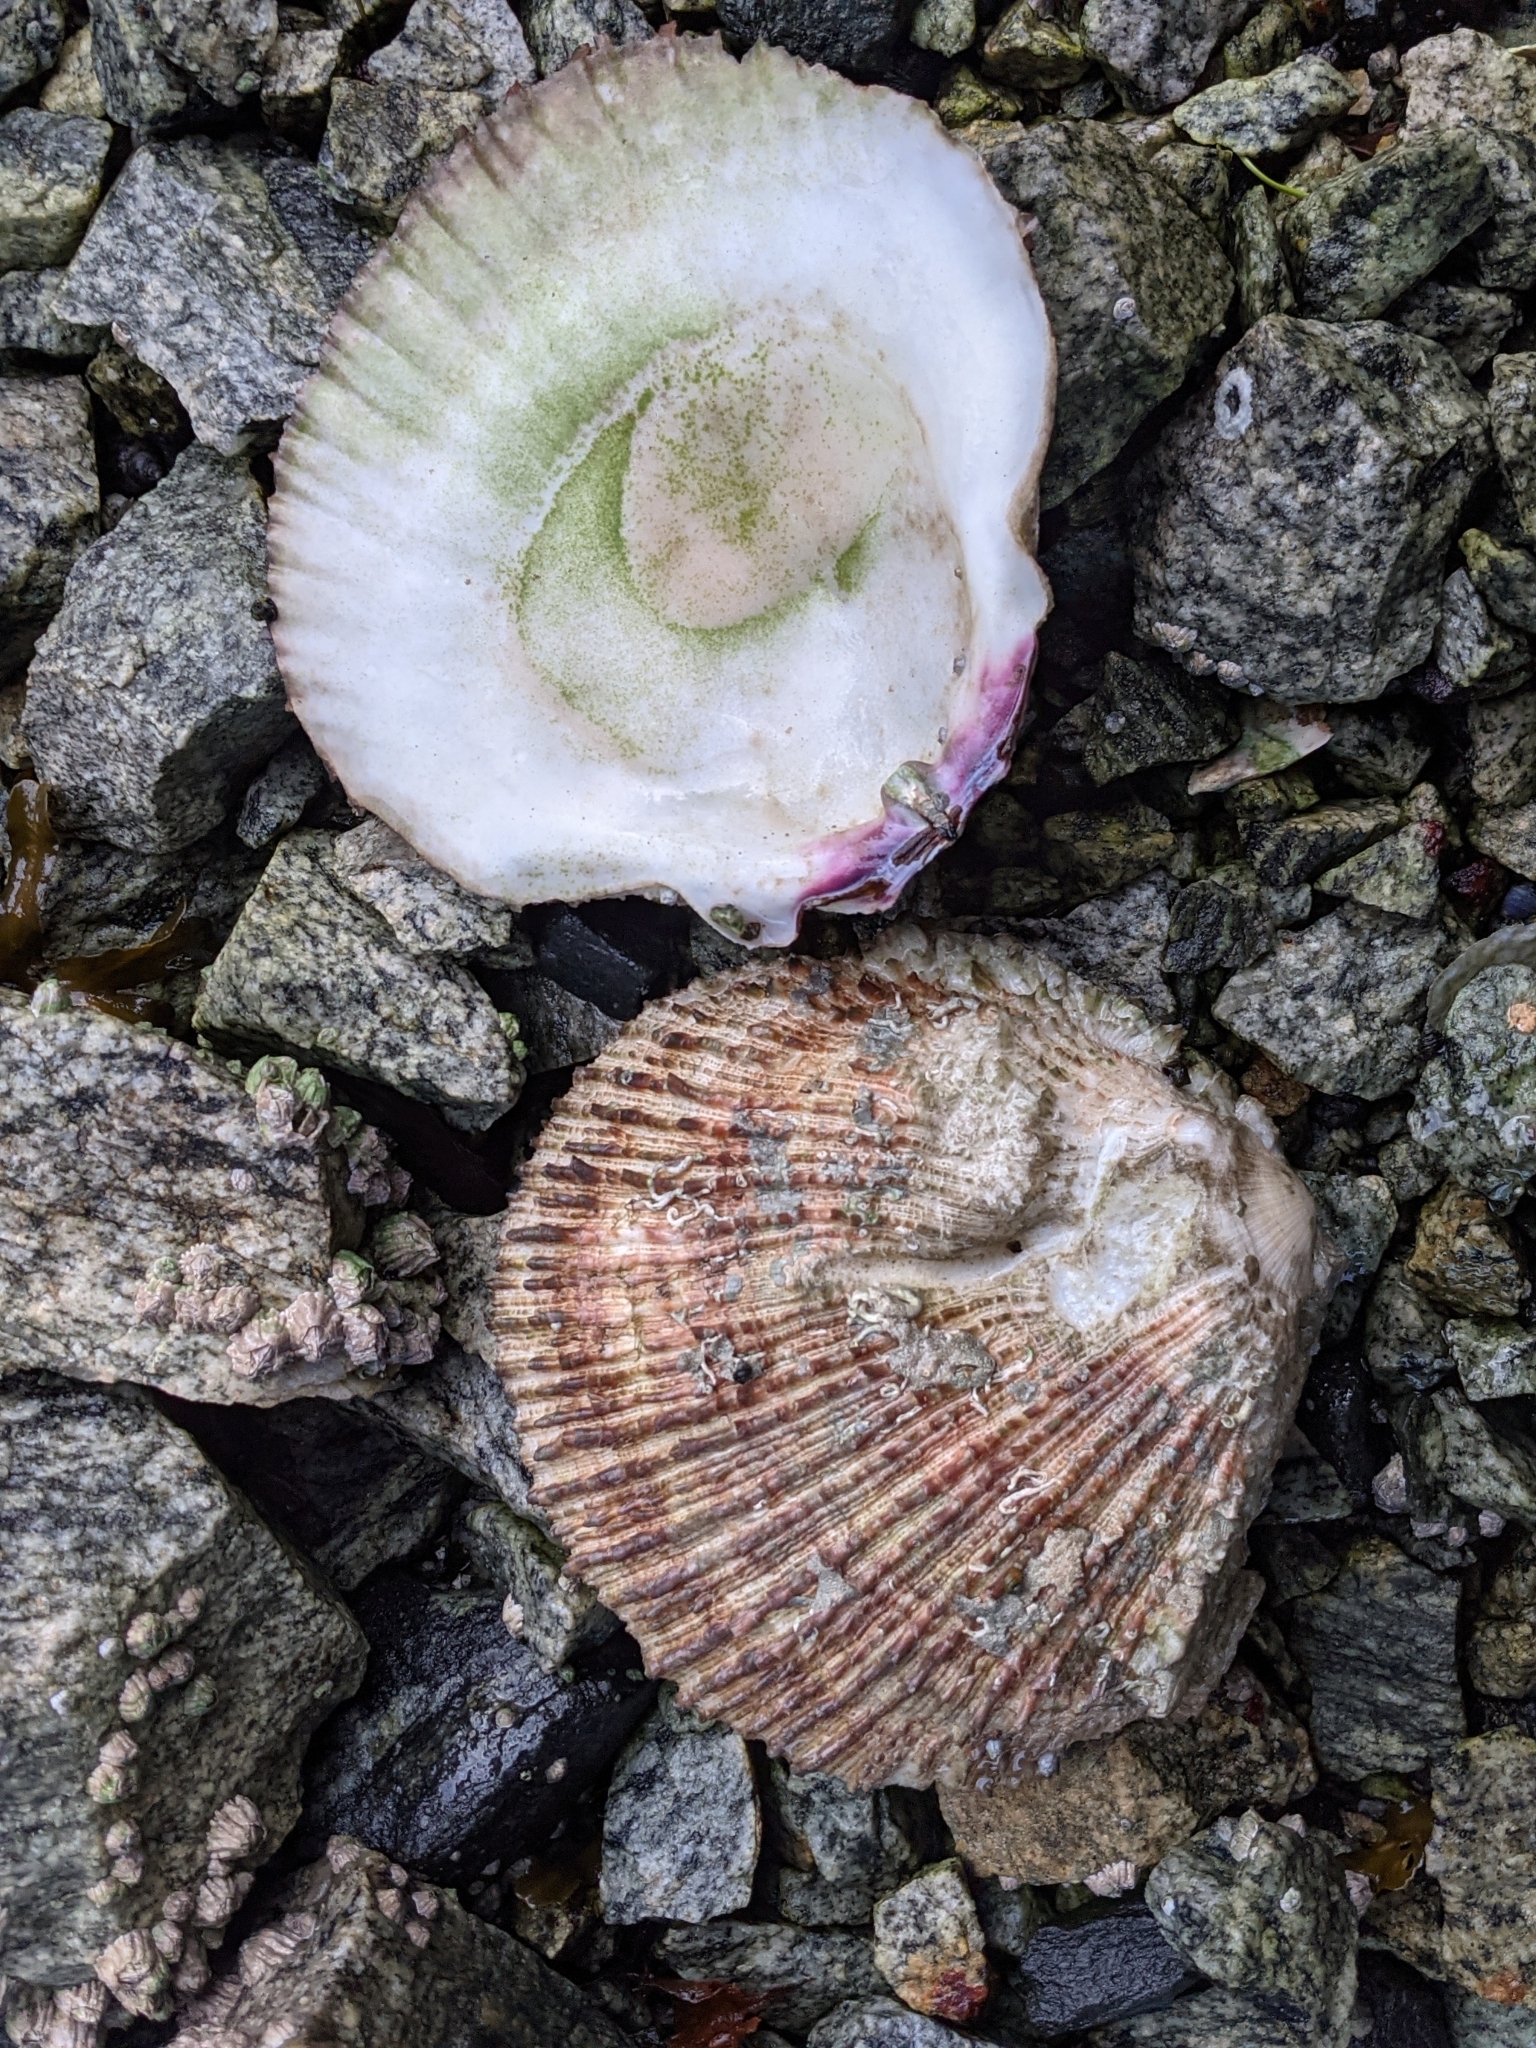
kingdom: Animalia
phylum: Mollusca
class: Bivalvia
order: Pectinida
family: Pectinidae
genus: Crassadoma
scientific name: Crassadoma gigantea
